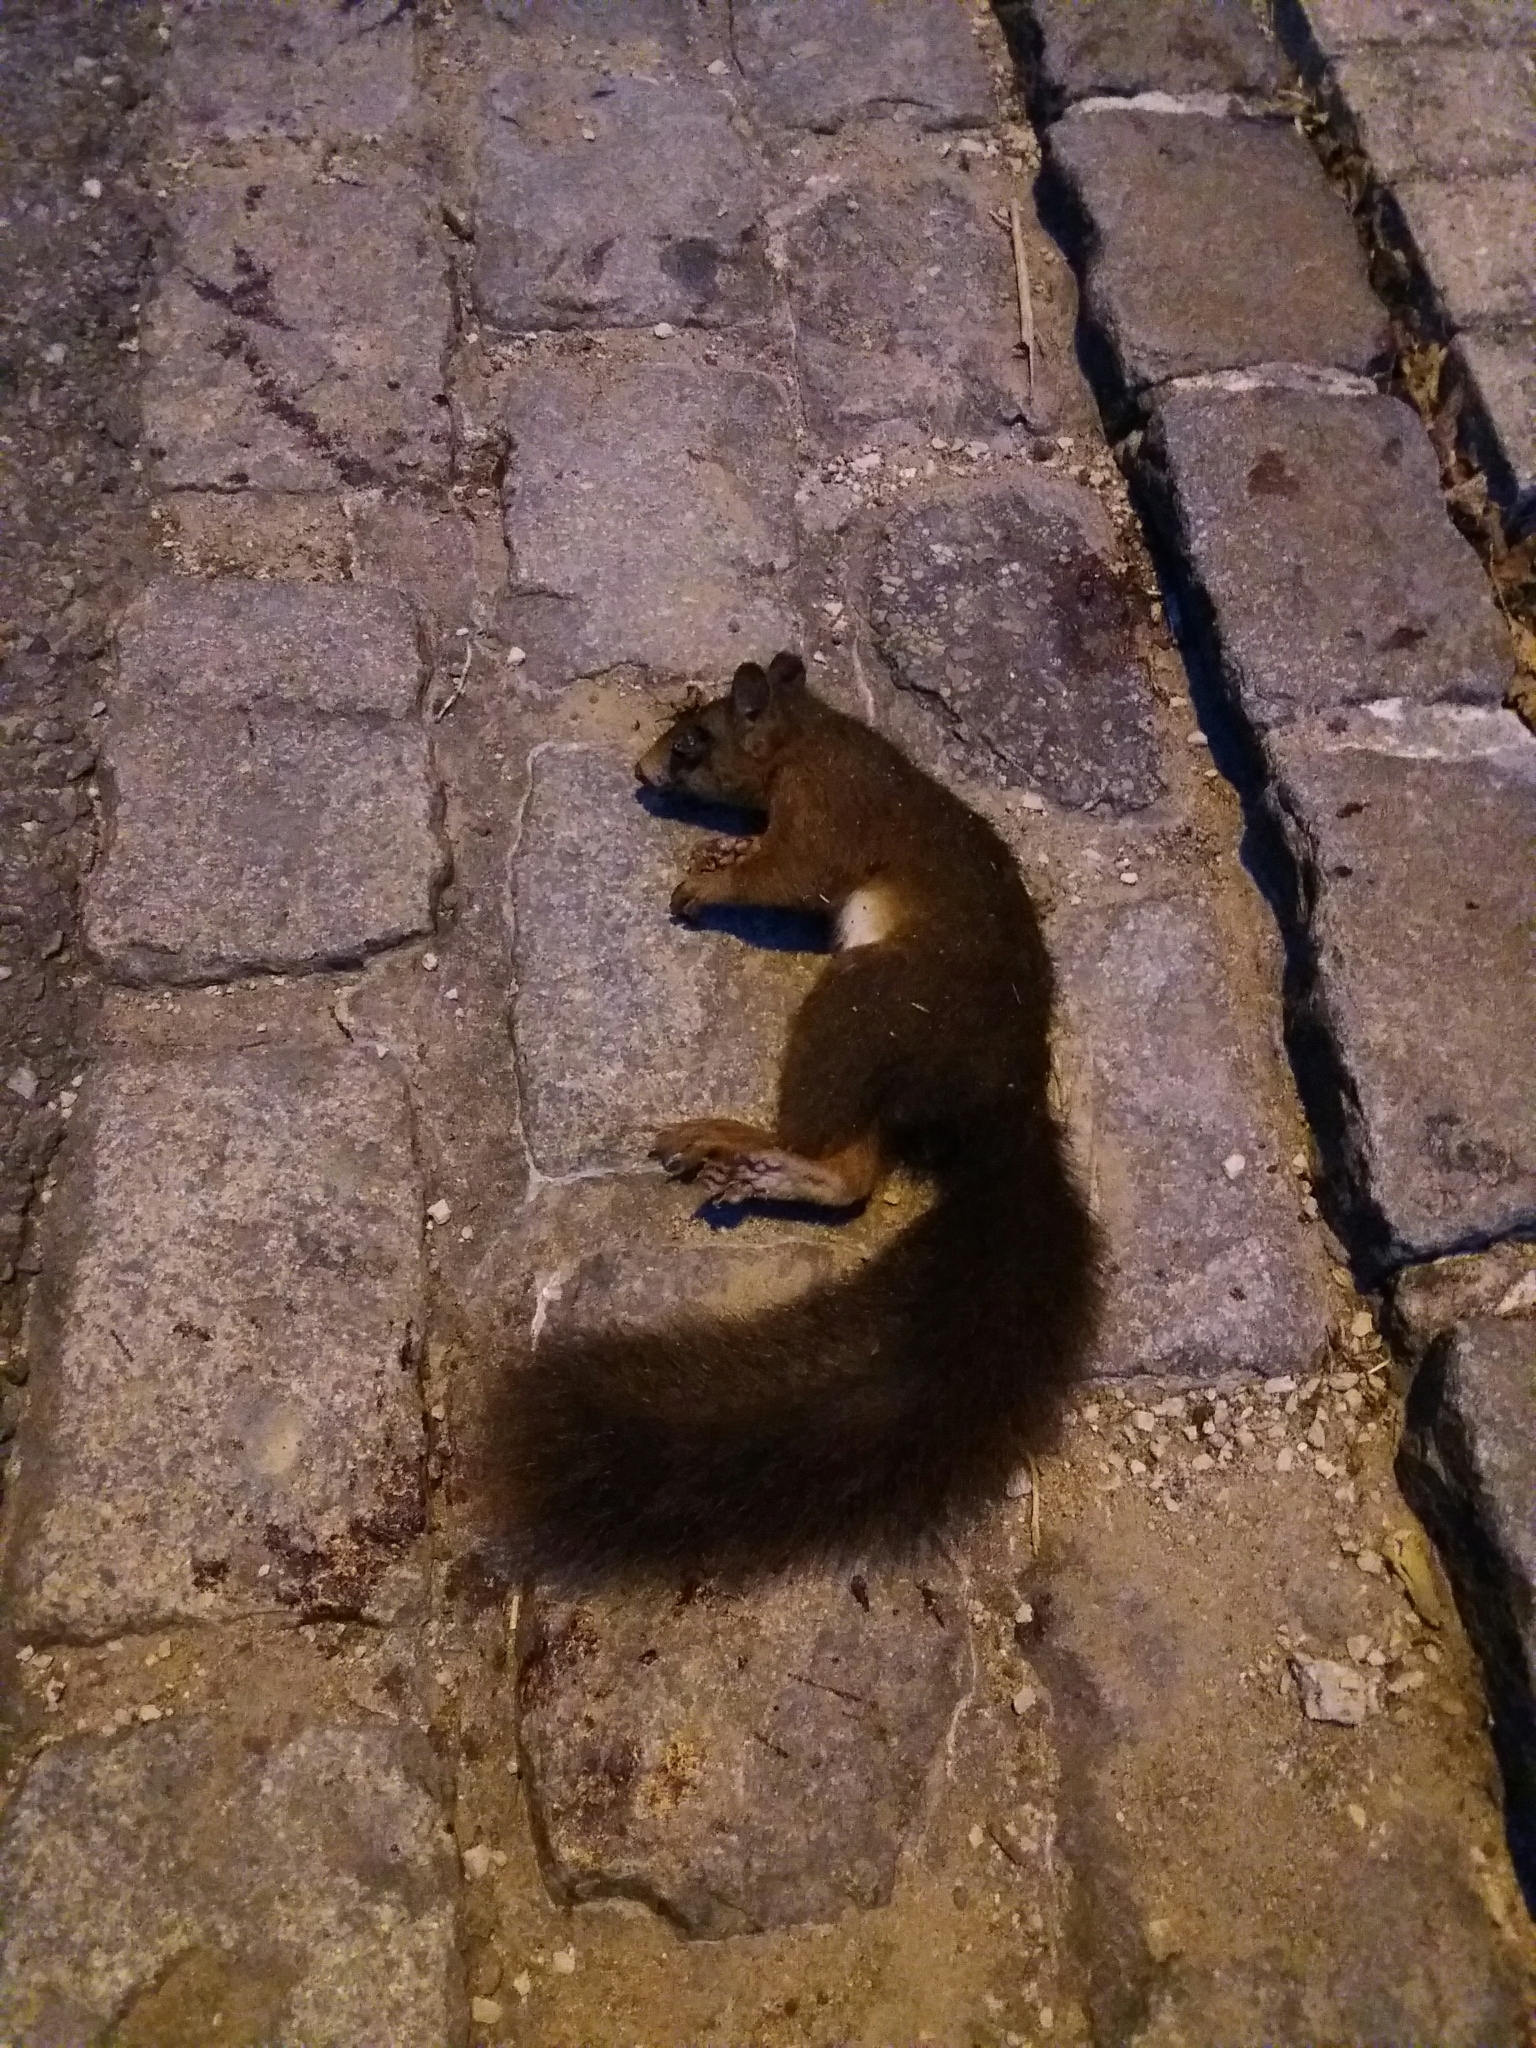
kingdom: Animalia
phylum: Chordata
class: Mammalia
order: Rodentia
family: Sciuridae
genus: Sciurus
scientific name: Sciurus vulgaris
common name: Eurasian red squirrel
